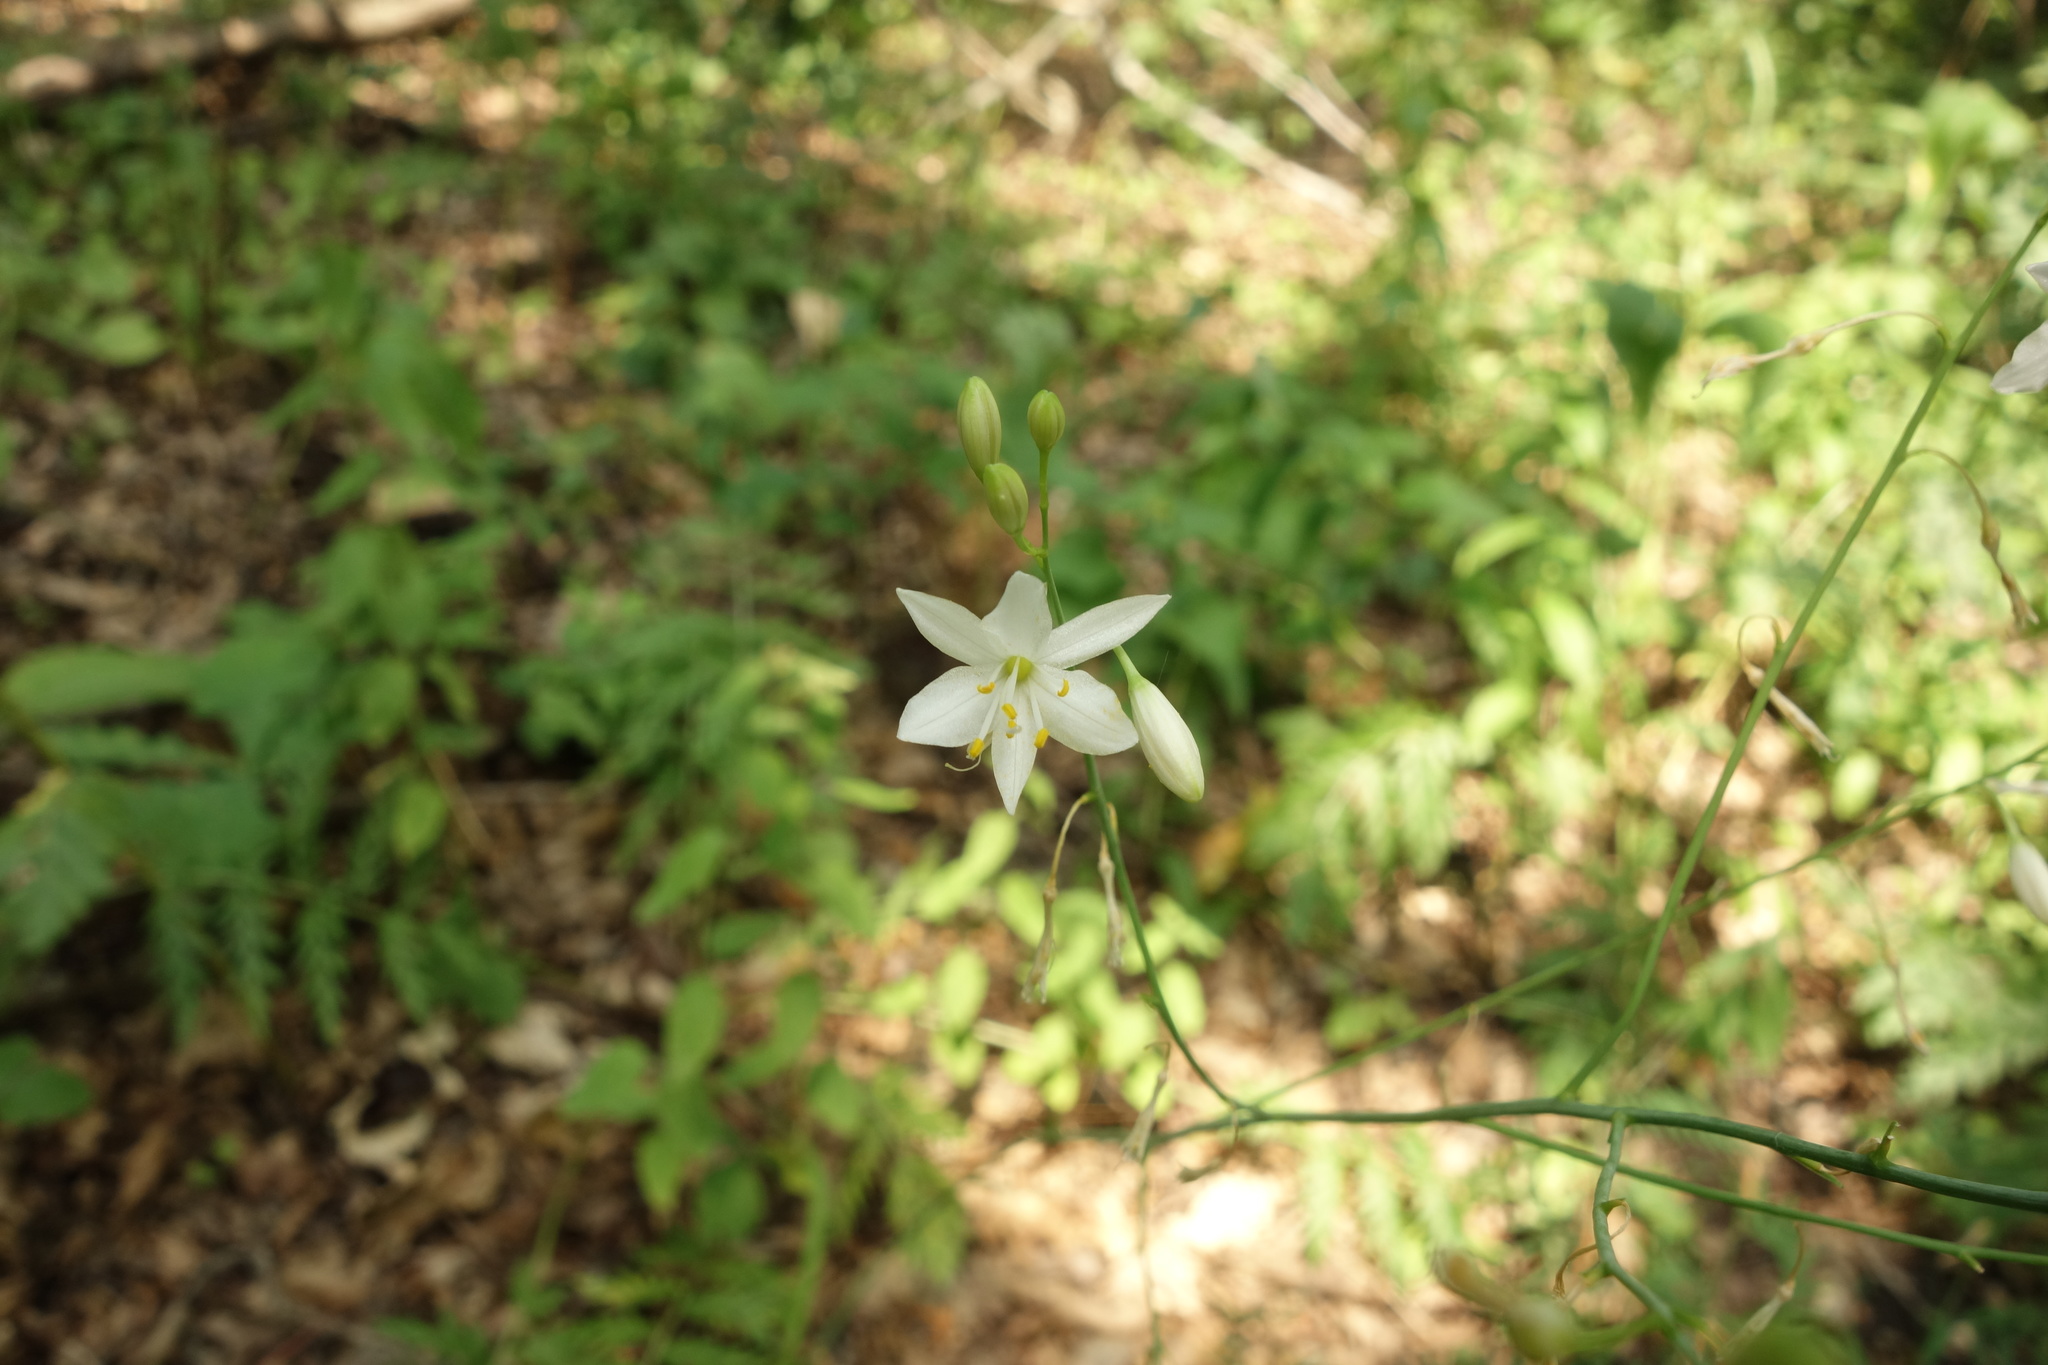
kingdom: Plantae
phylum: Tracheophyta
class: Liliopsida
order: Asparagales
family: Asparagaceae
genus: Anthericum
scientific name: Anthericum ramosum
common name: Branched st. bernard's-lily
